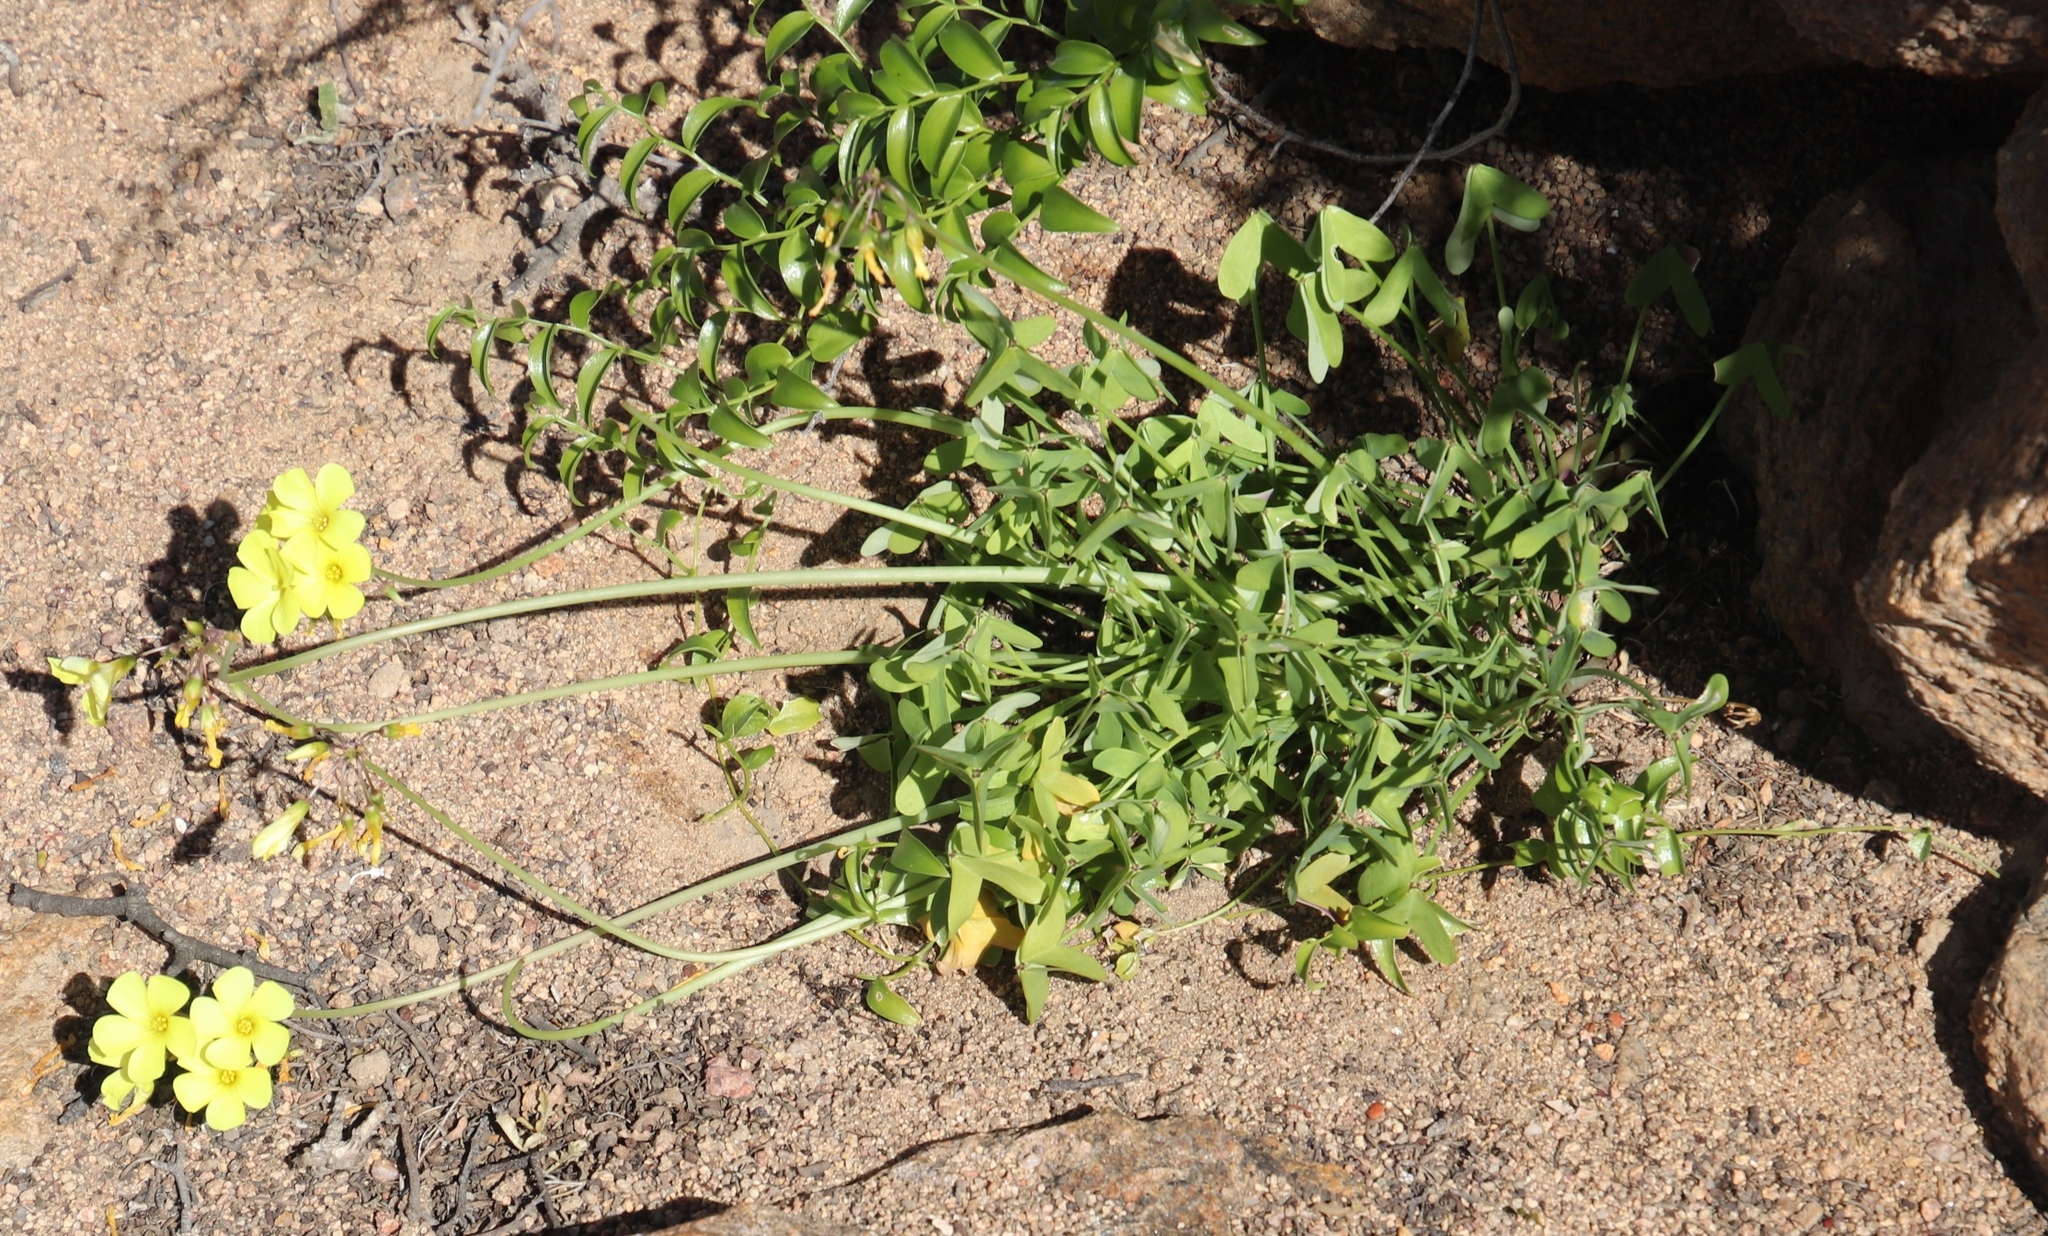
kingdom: Plantae
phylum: Tracheophyta
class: Magnoliopsida
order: Oxalidales
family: Oxalidaceae
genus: Oxalis
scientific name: Oxalis pes-caprae
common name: Bermuda-buttercup
